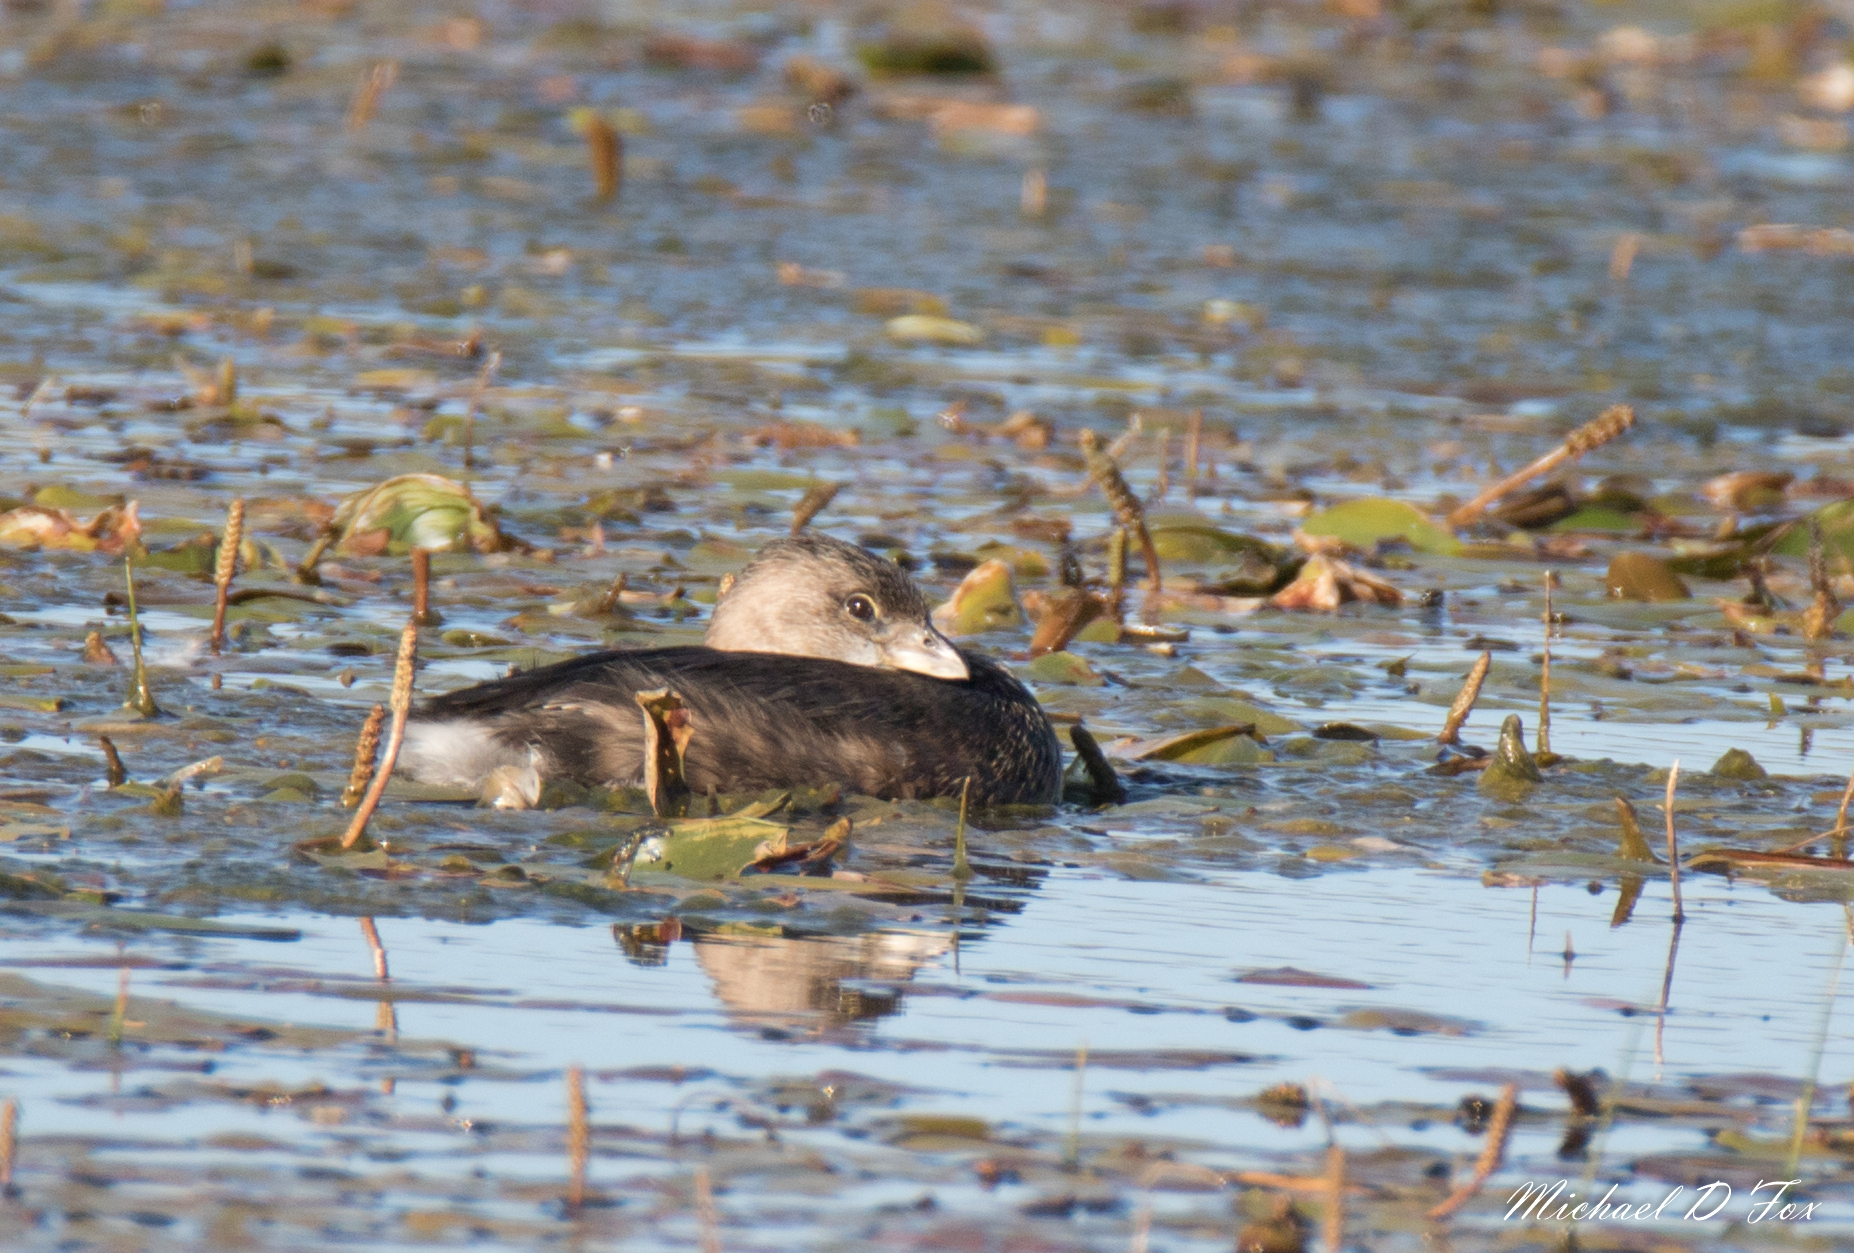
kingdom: Animalia
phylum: Chordata
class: Aves
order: Podicipediformes
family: Podicipedidae
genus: Podilymbus
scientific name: Podilymbus podiceps
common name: Pied-billed grebe
